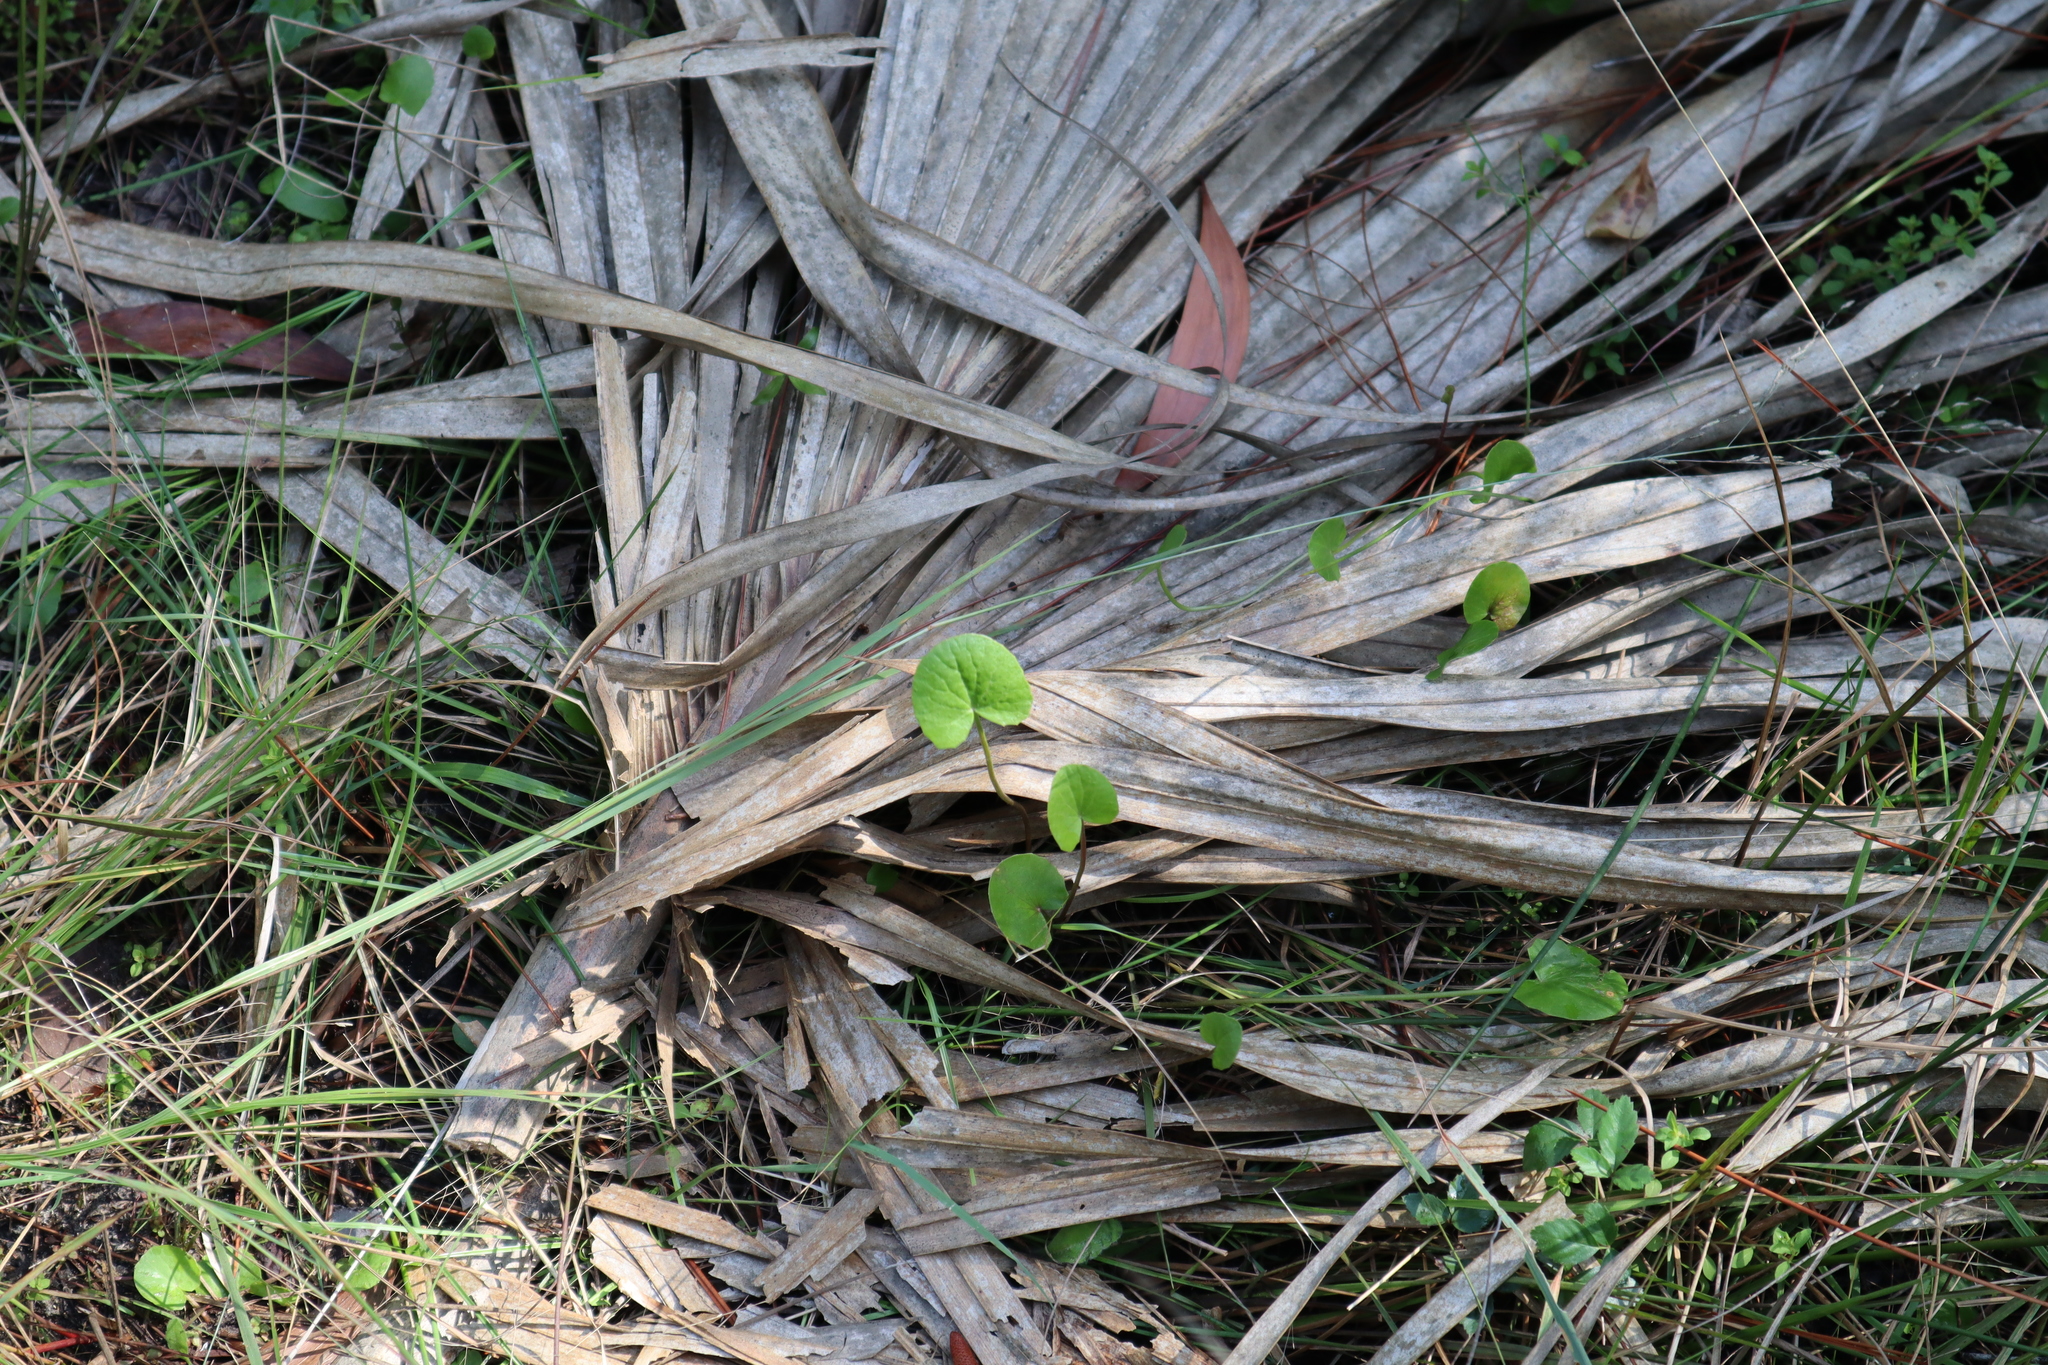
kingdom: Plantae
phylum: Tracheophyta
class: Magnoliopsida
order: Apiales
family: Apiaceae
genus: Centella
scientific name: Centella erecta
